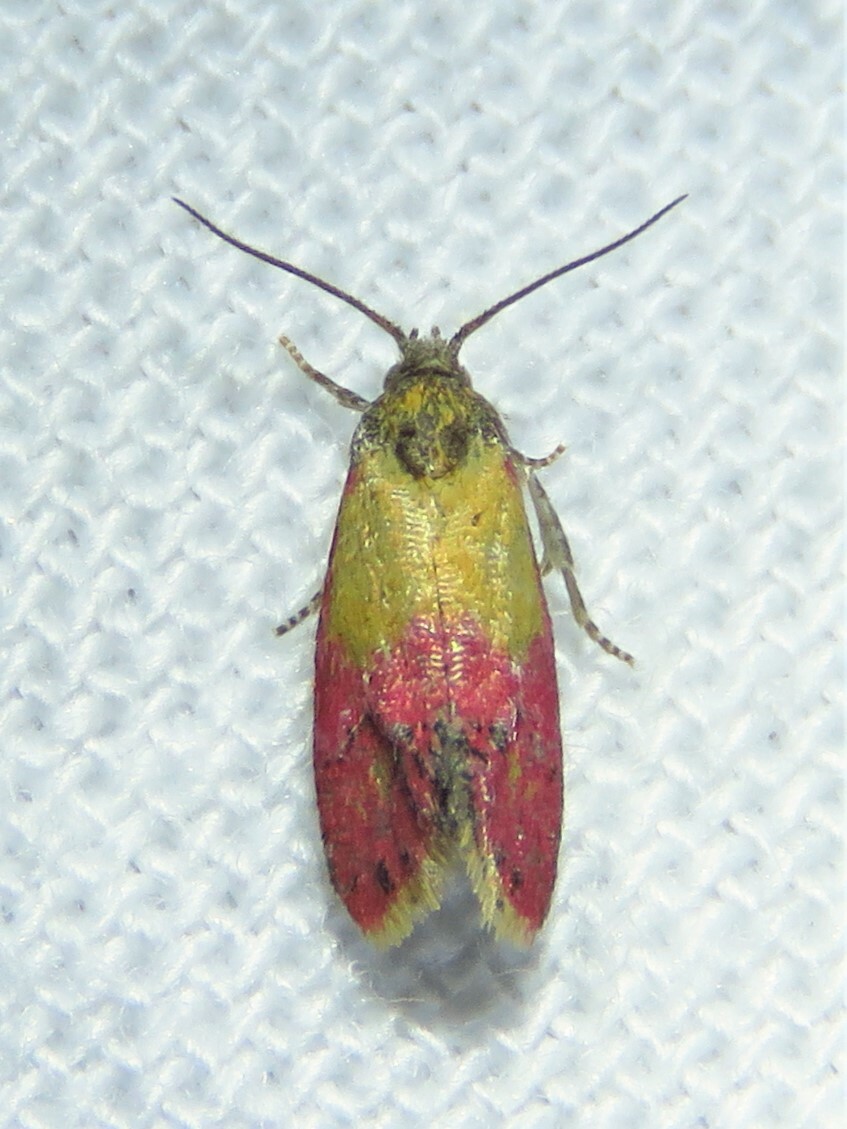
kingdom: Animalia
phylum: Arthropoda
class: Insecta
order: Lepidoptera
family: Tortricidae
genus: Conchylis
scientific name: Conchylis oenotherana
